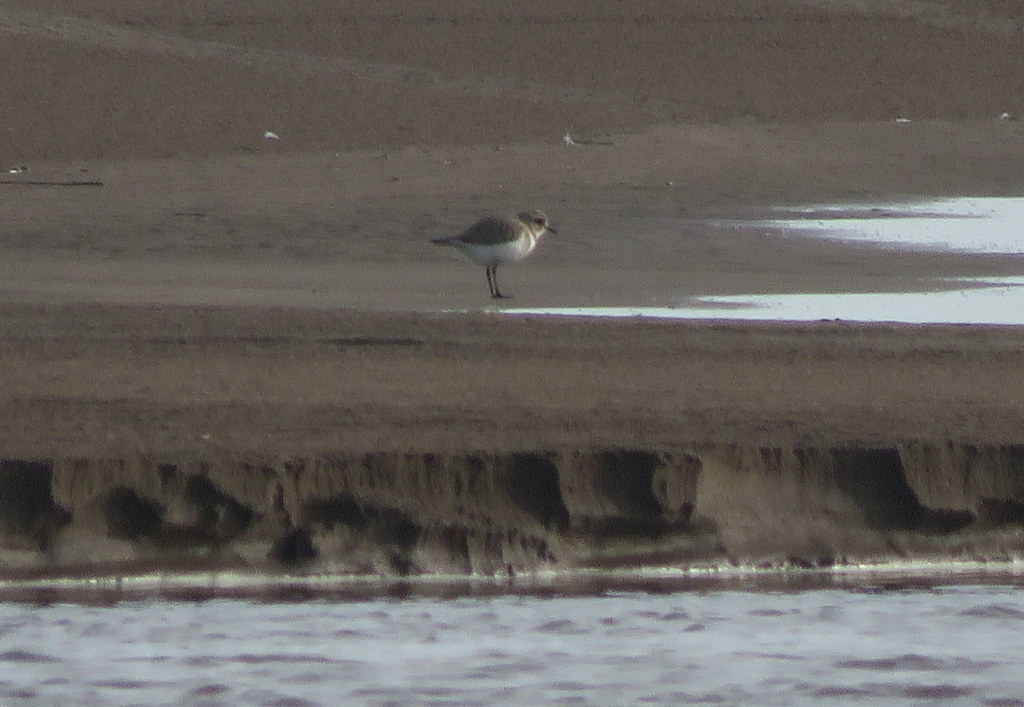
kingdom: Animalia
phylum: Chordata
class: Aves
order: Charadriiformes
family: Charadriidae
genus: Anarhynchus
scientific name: Anarhynchus
